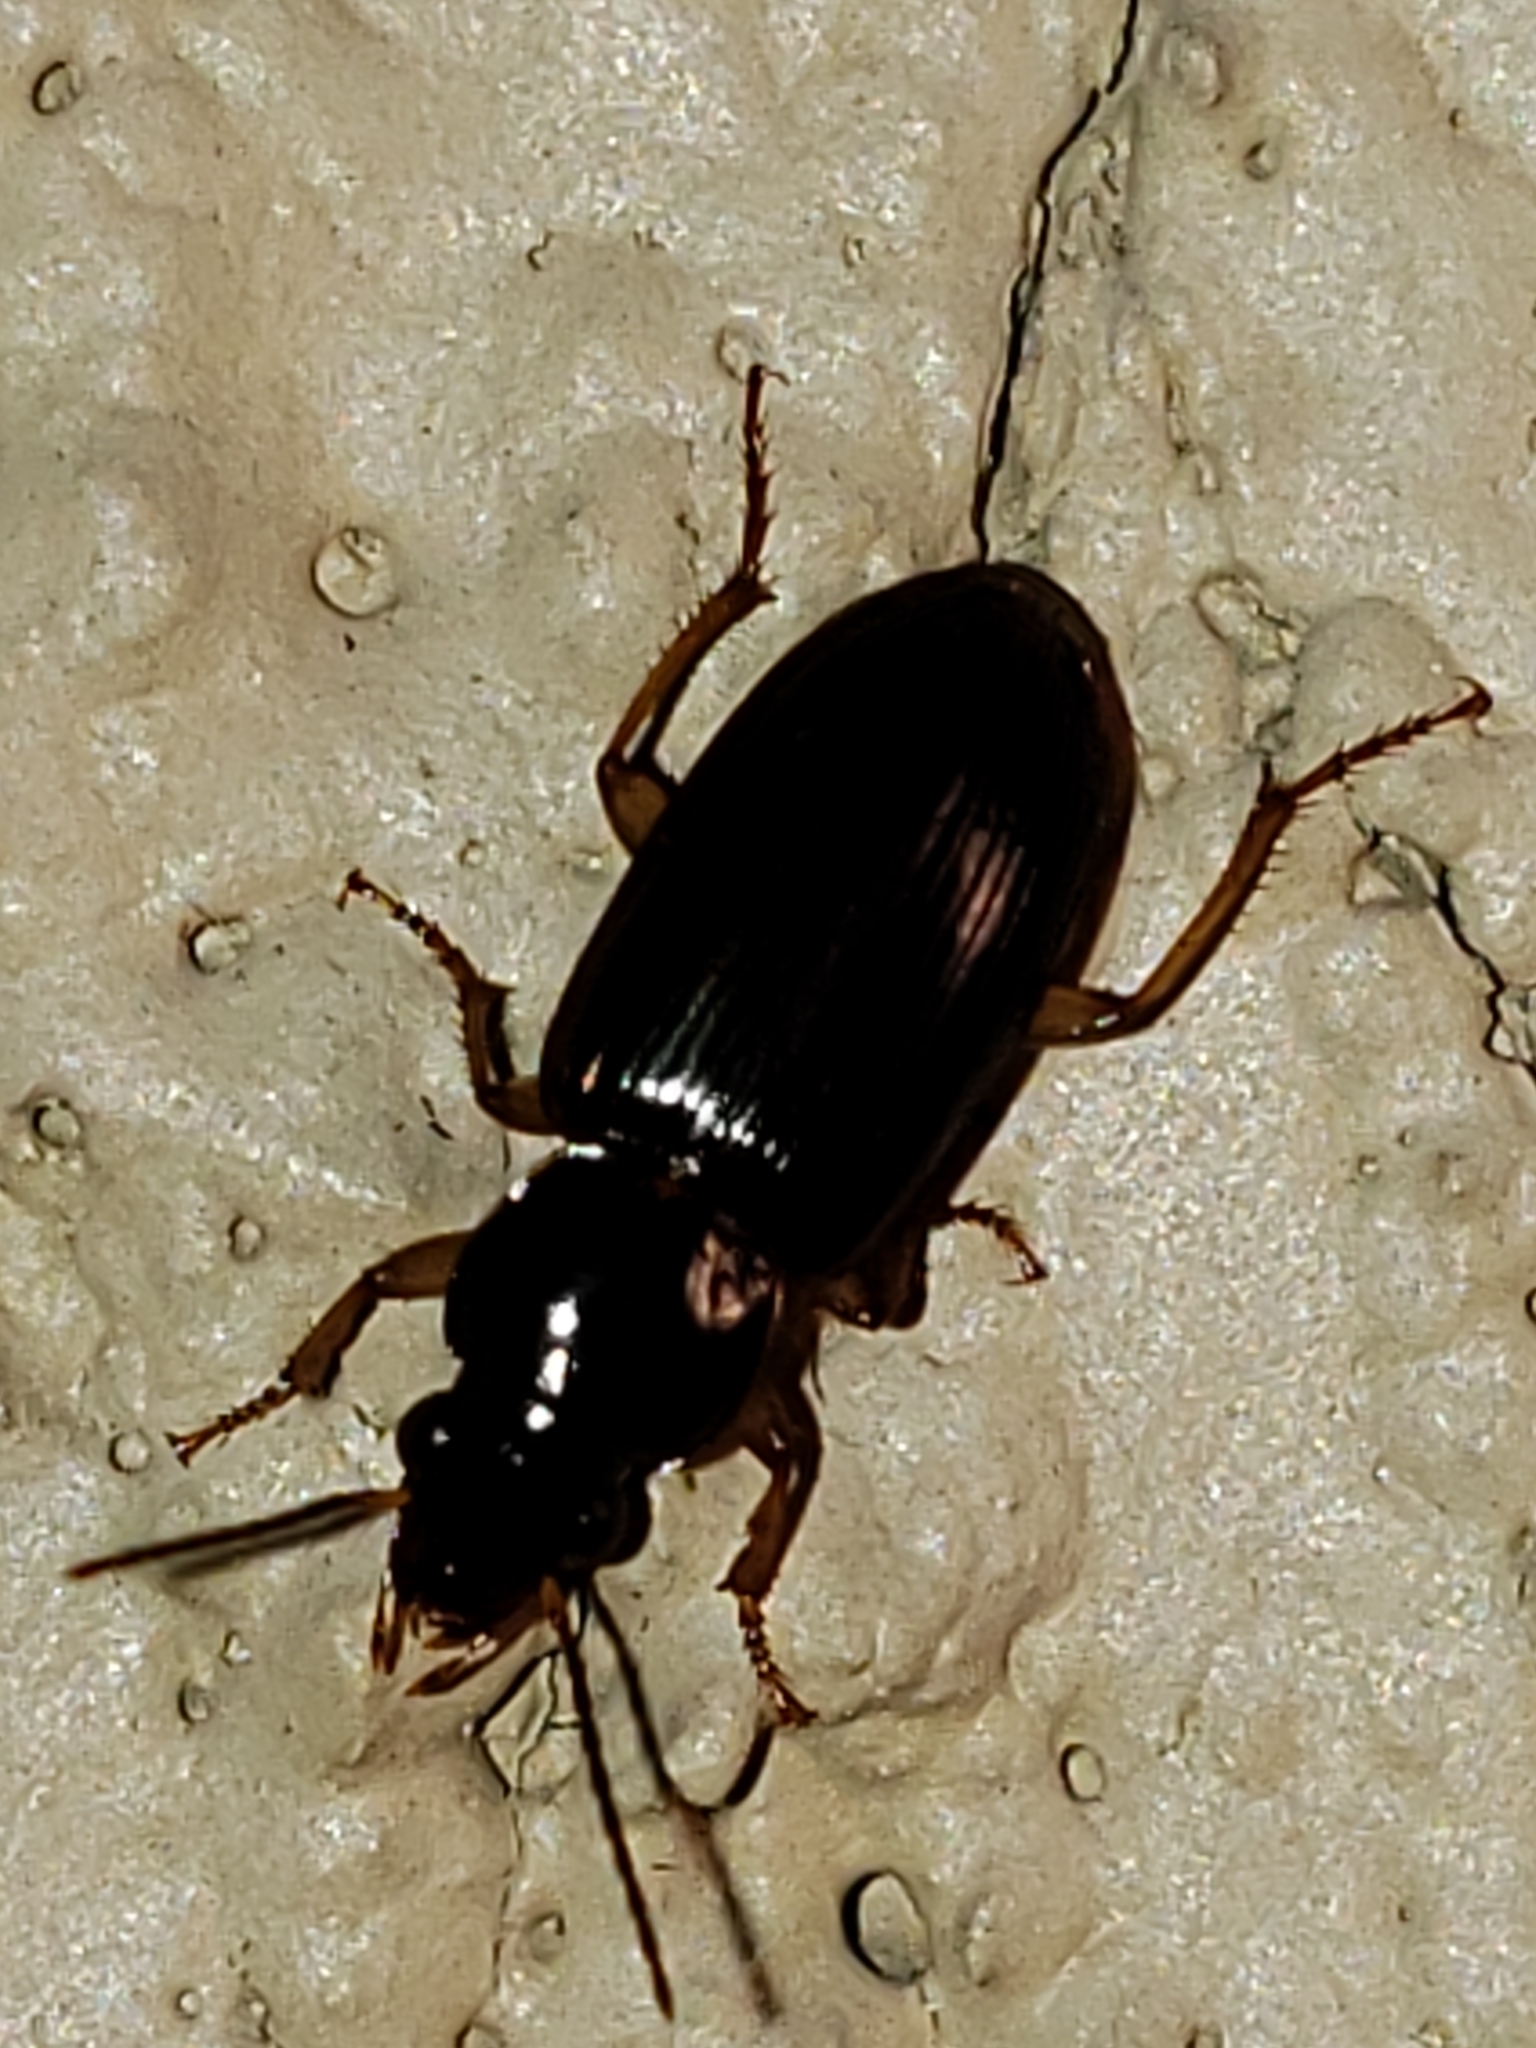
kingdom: Animalia
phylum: Arthropoda
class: Insecta
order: Coleoptera
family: Carabidae
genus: Stenolophus
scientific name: Stenolophus ochropezus
